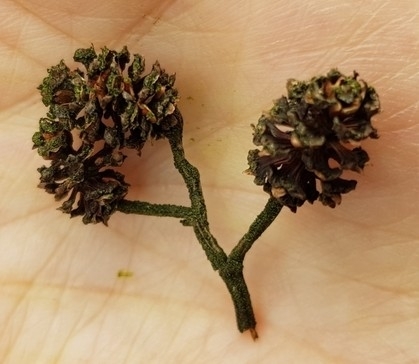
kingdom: Plantae
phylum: Tracheophyta
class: Magnoliopsida
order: Fagales
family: Betulaceae
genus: Alnus
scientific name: Alnus glutinosa
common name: Black alder
